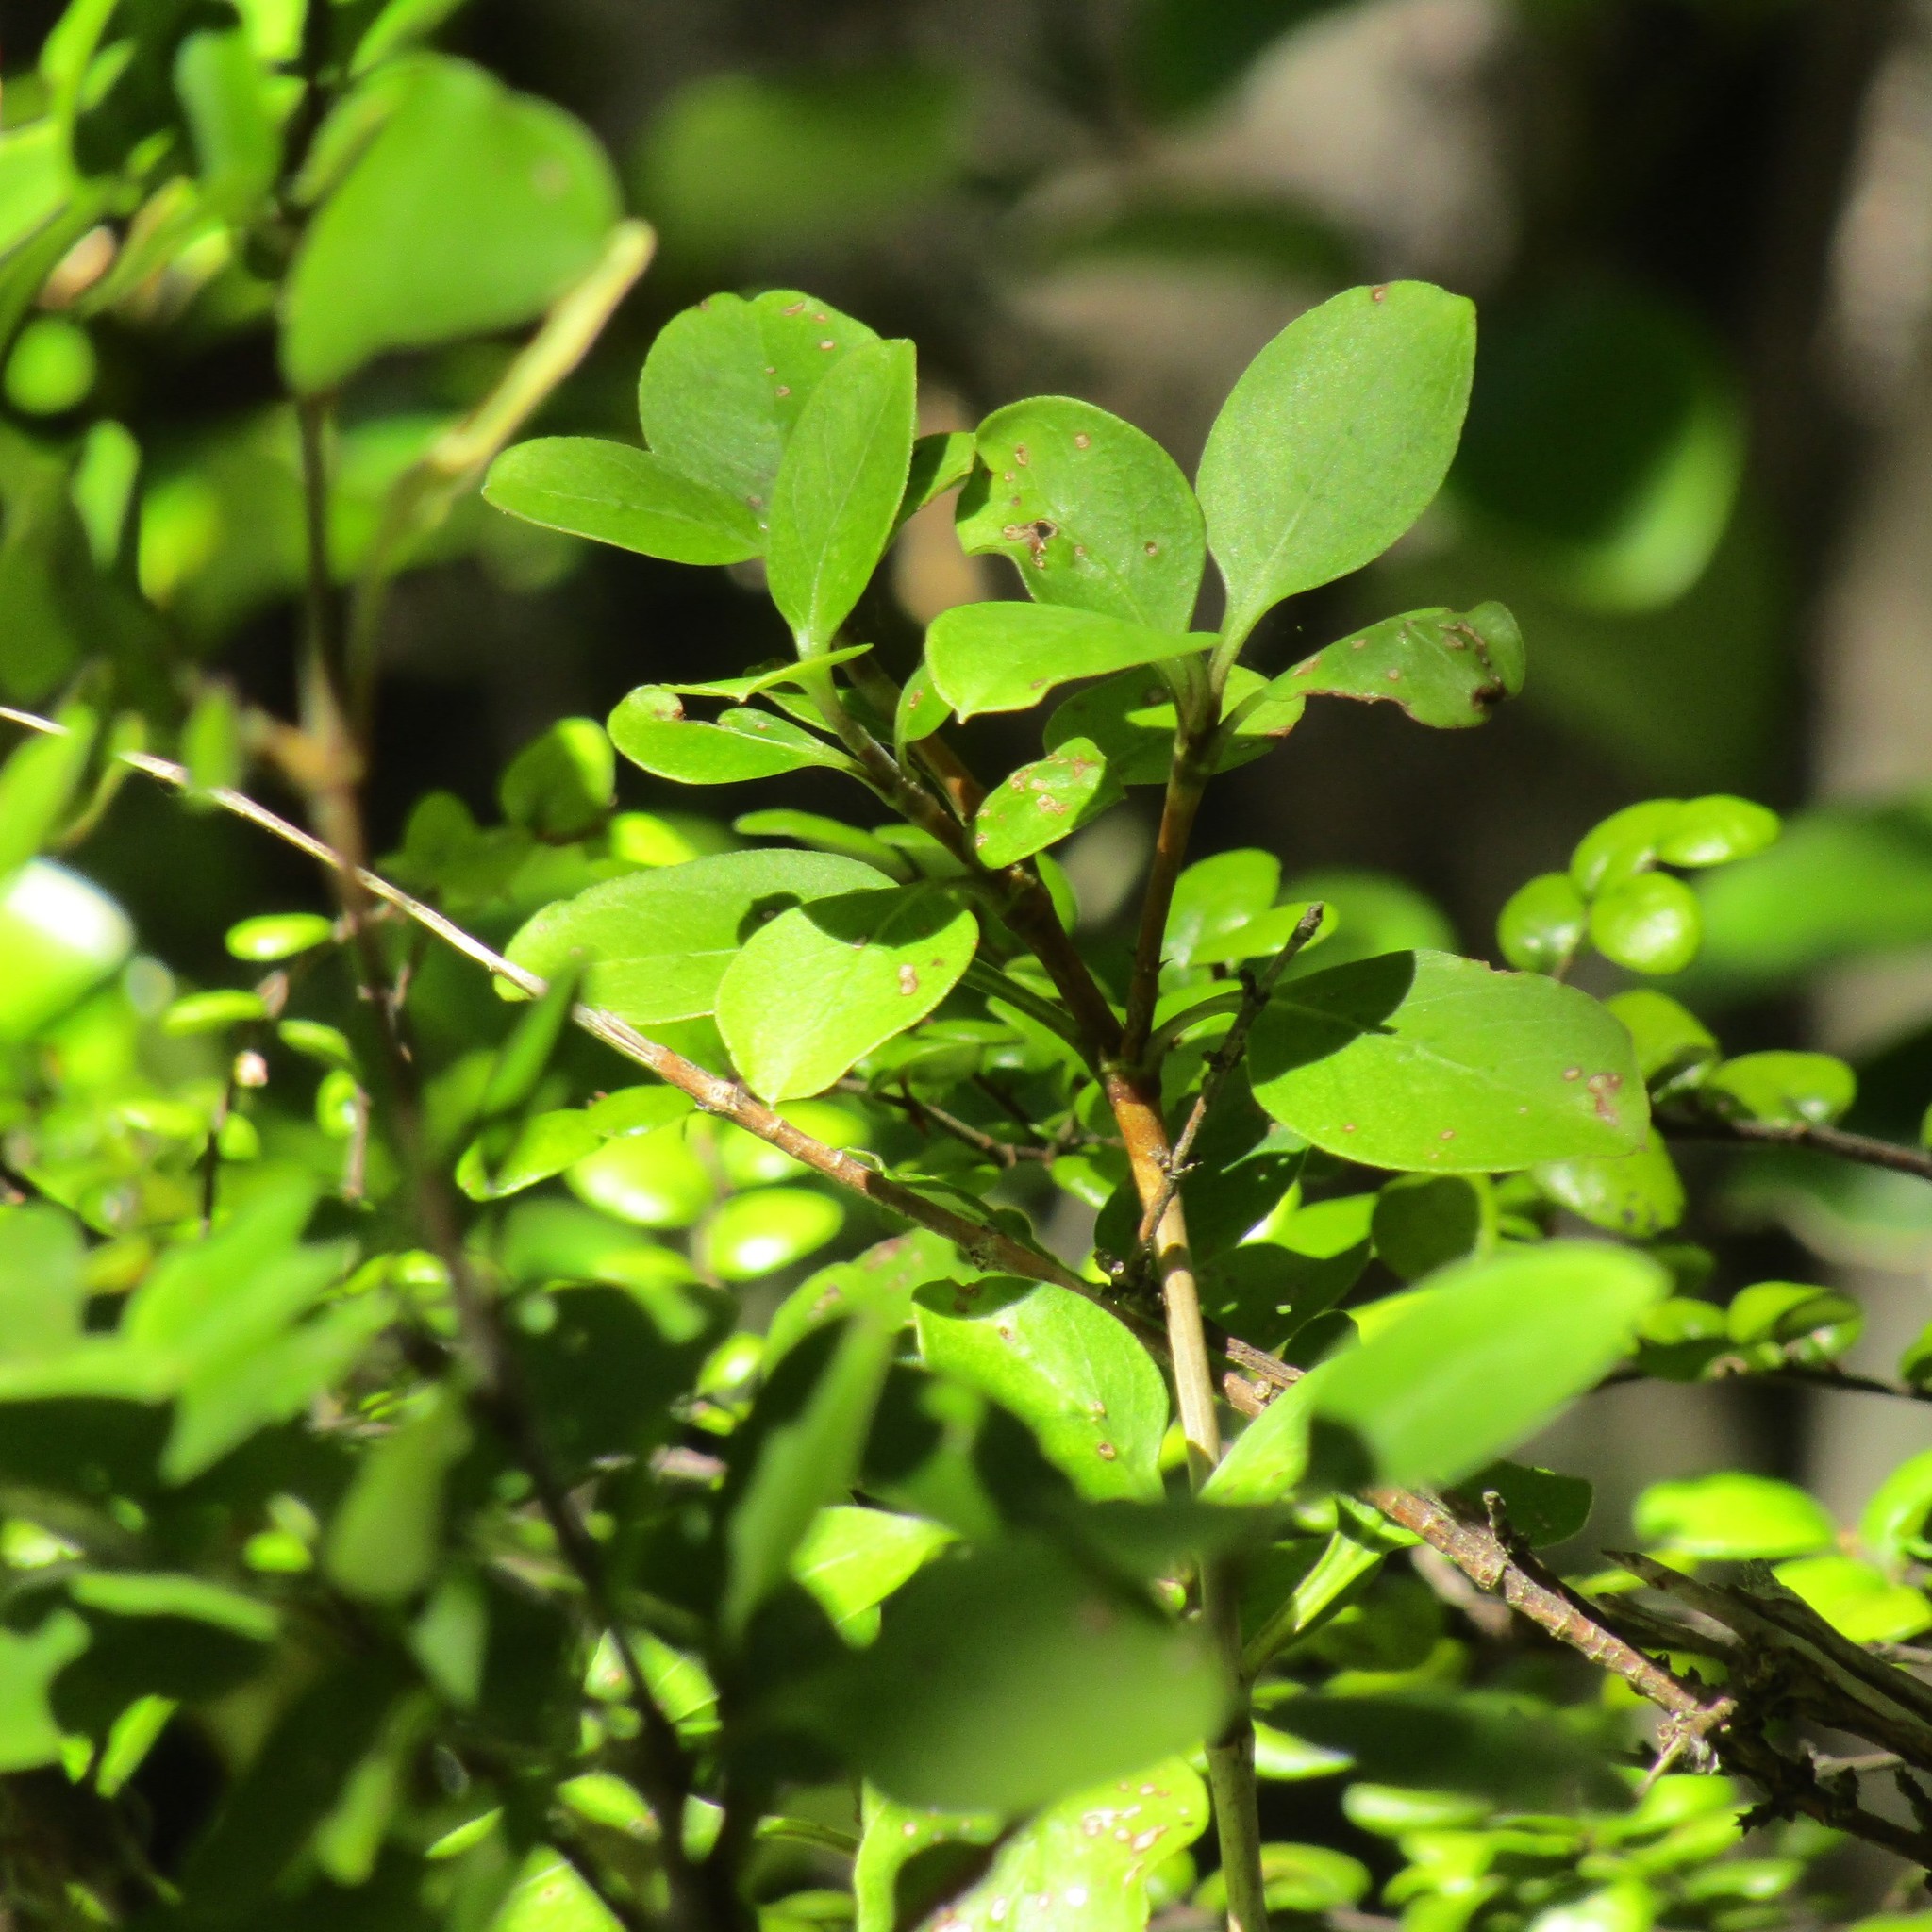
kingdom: Plantae
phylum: Tracheophyta
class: Magnoliopsida
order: Gentianales
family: Rubiaceae
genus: Coprosma
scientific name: Coprosma foetidissima
